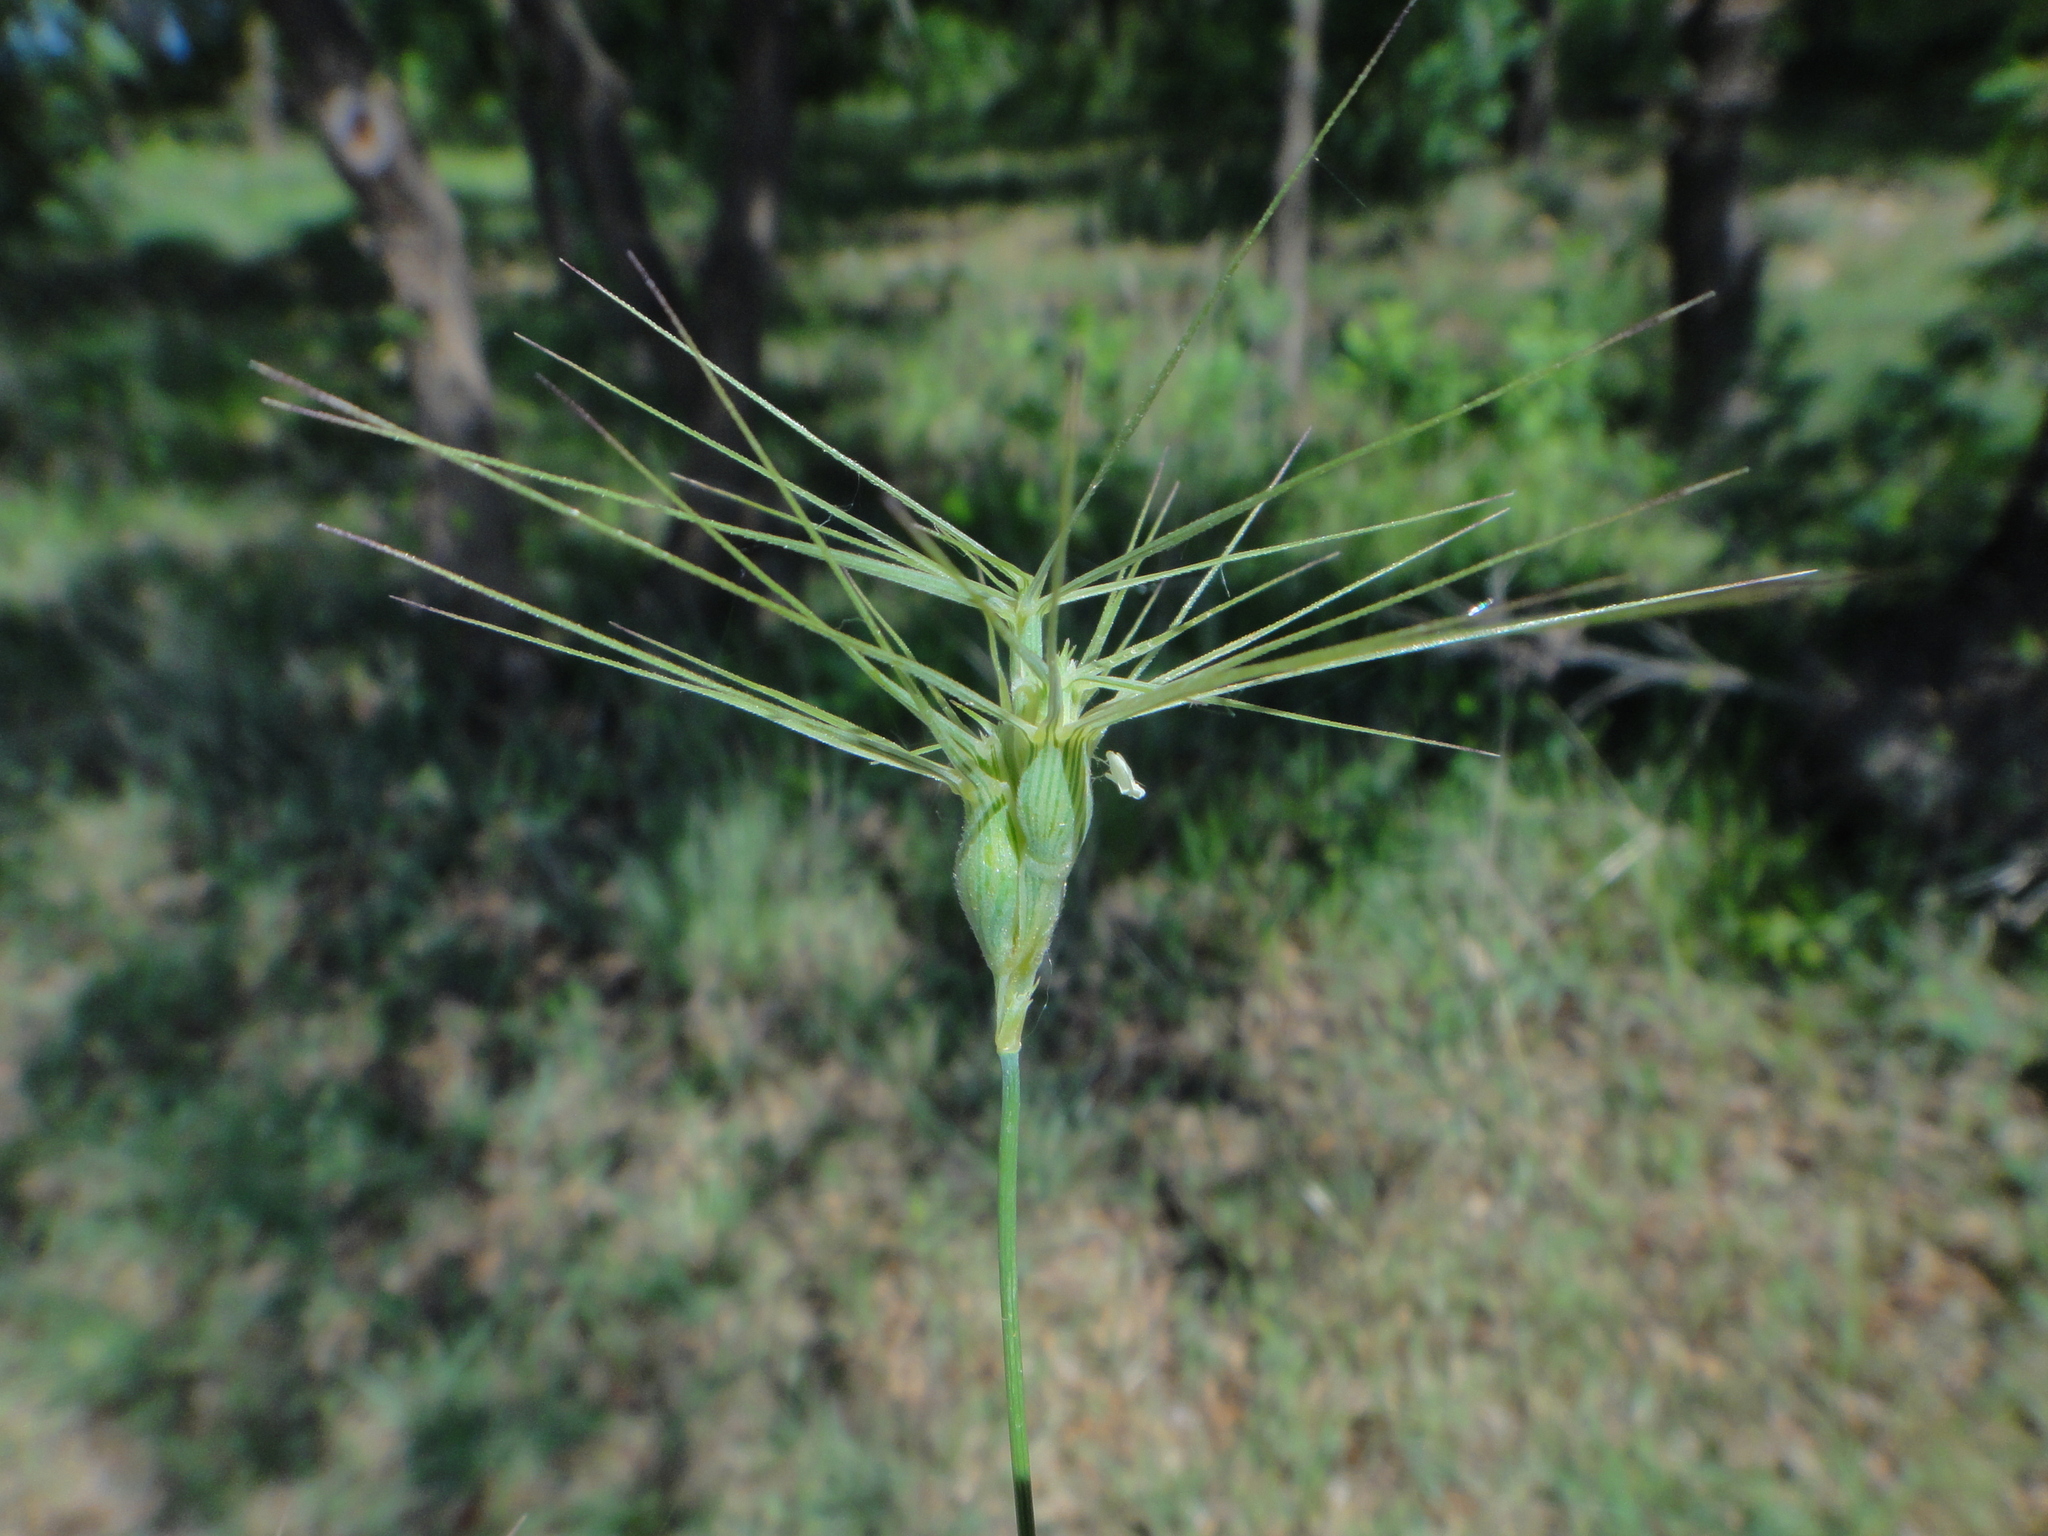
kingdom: Plantae
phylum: Tracheophyta
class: Liliopsida
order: Poales
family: Poaceae
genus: Aegilops
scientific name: Aegilops geniculata
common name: Ovate goat grass
